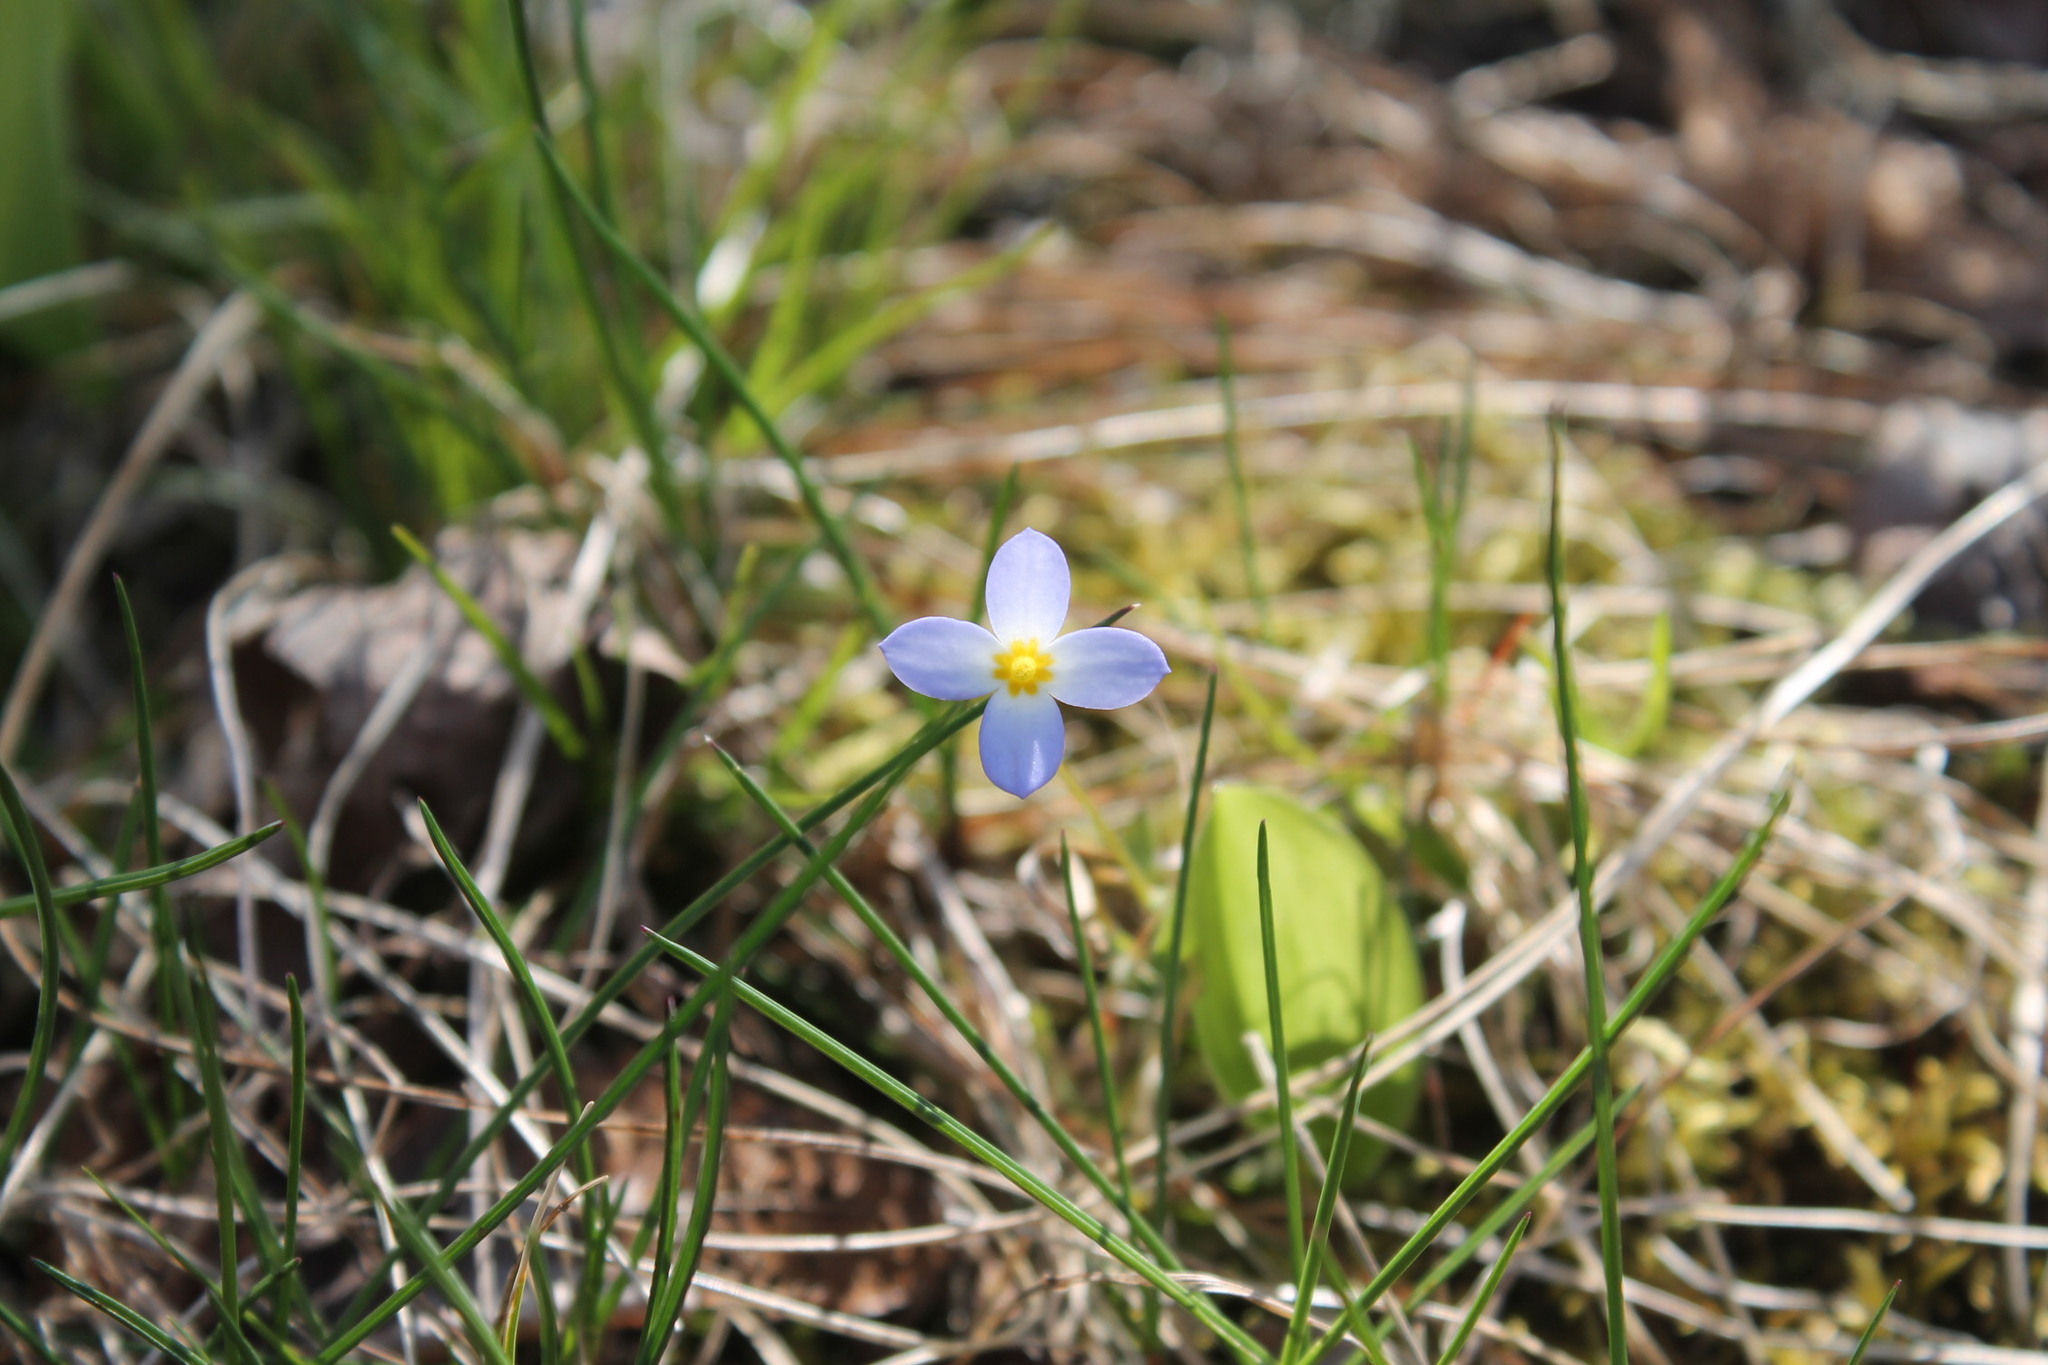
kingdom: Plantae
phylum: Tracheophyta
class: Magnoliopsida
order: Gentianales
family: Rubiaceae
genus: Houstonia
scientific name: Houstonia caerulea
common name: Bluets
